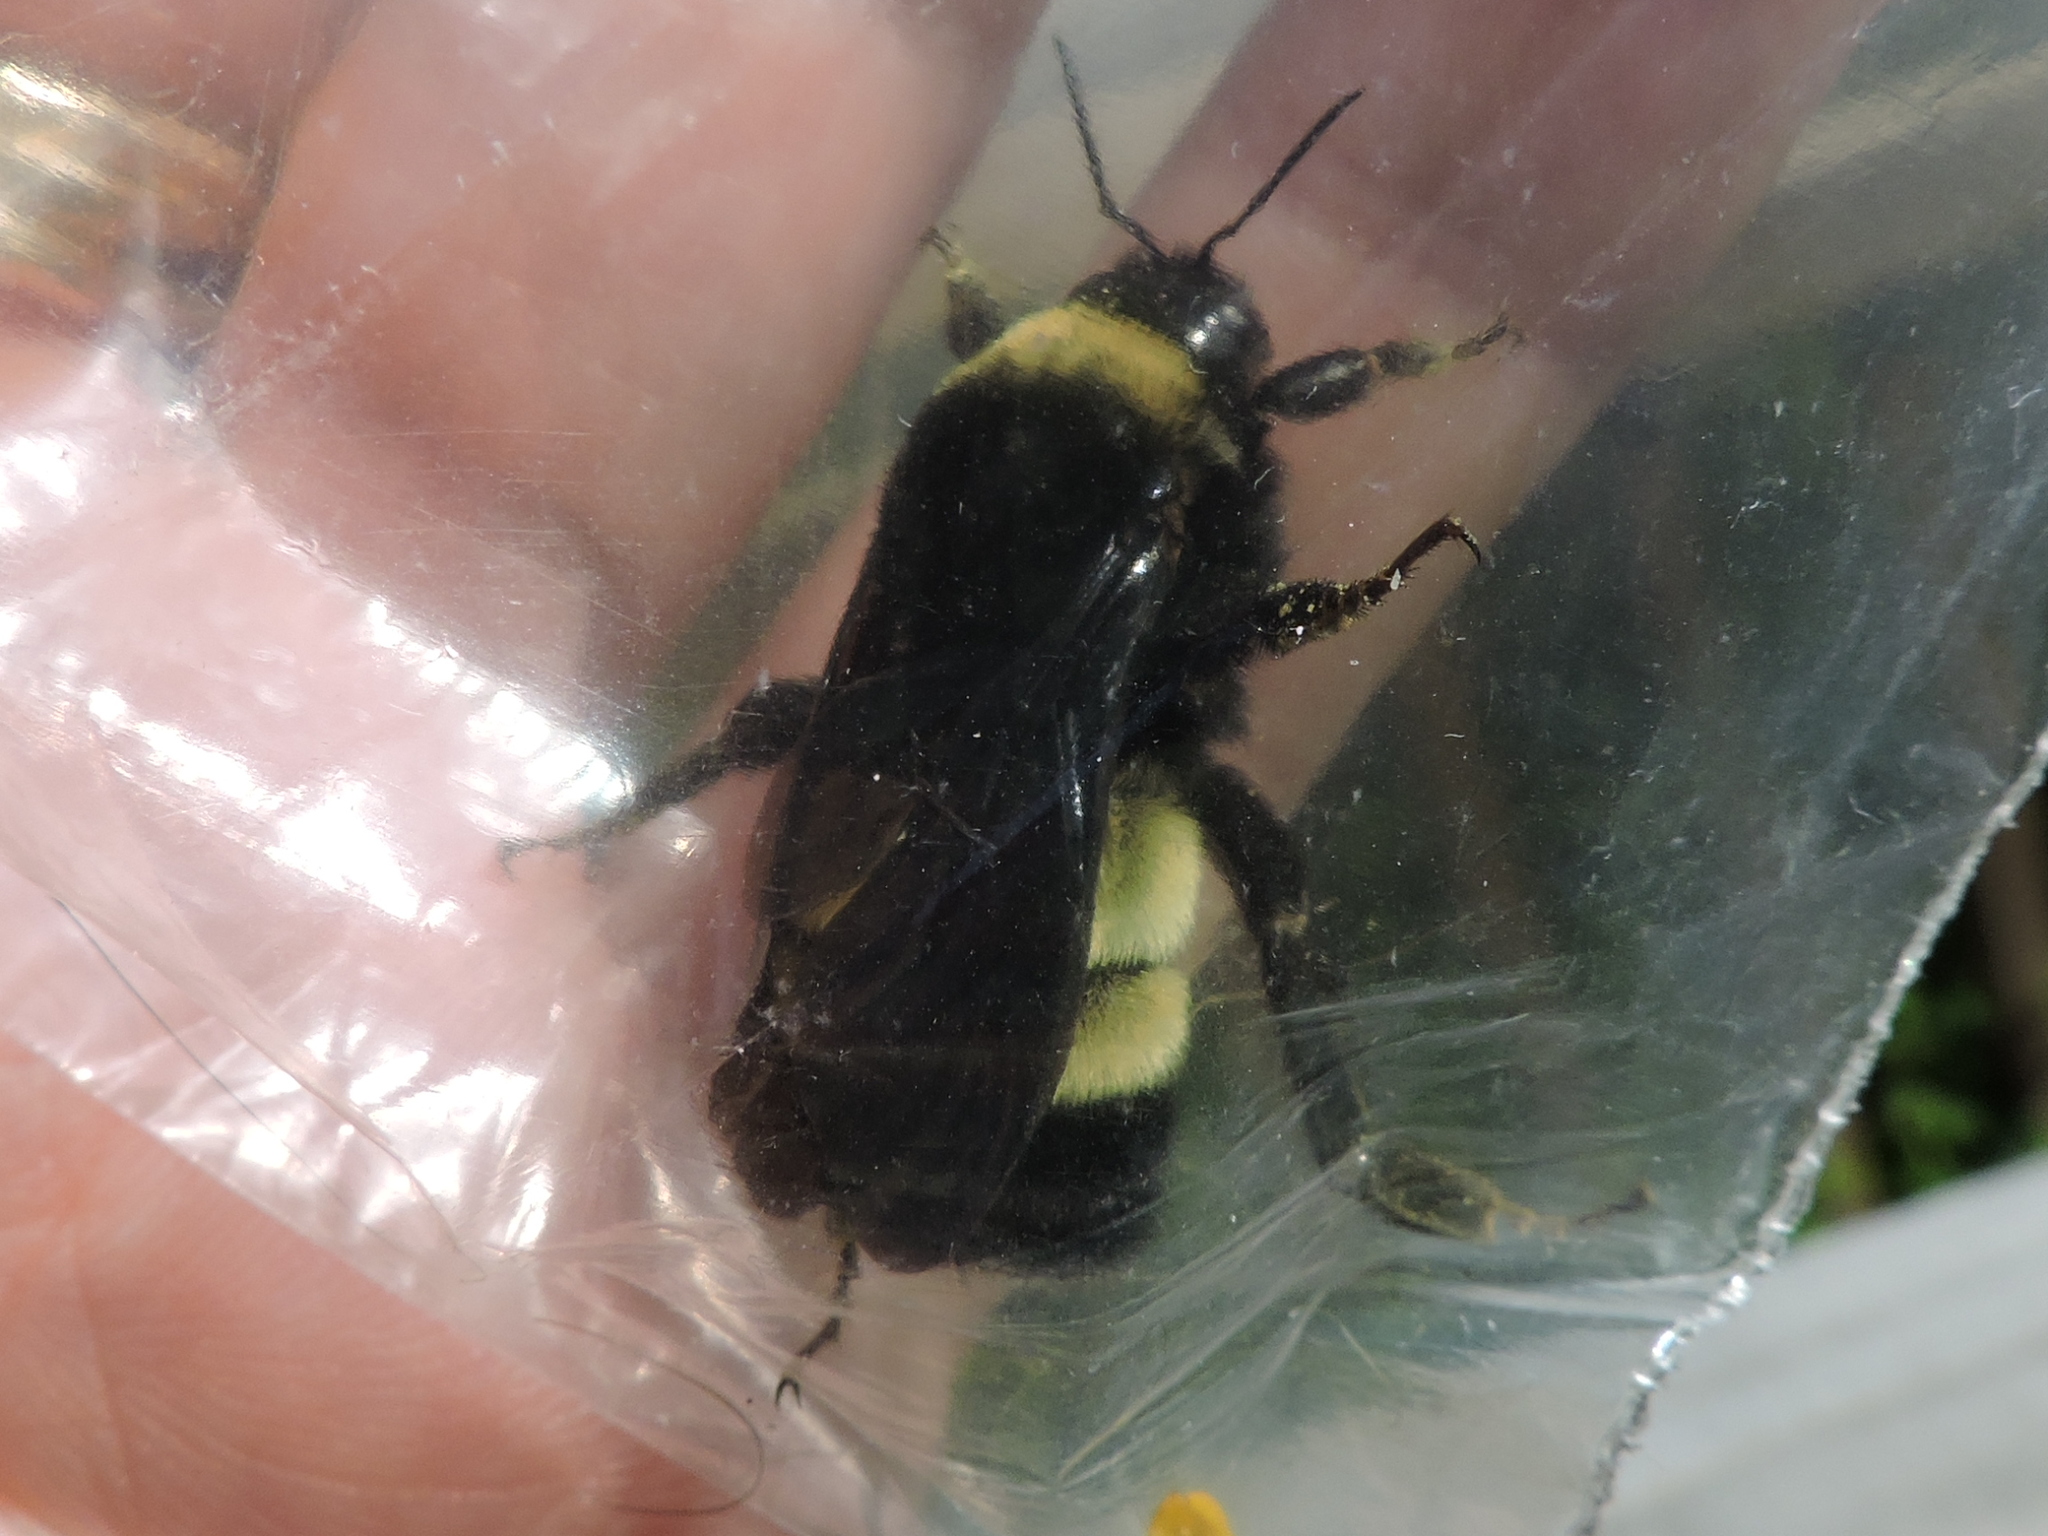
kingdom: Animalia
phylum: Arthropoda
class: Insecta
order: Hymenoptera
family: Apidae
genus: Bombus
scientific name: Bombus pensylvanicus
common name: Bumble bee
